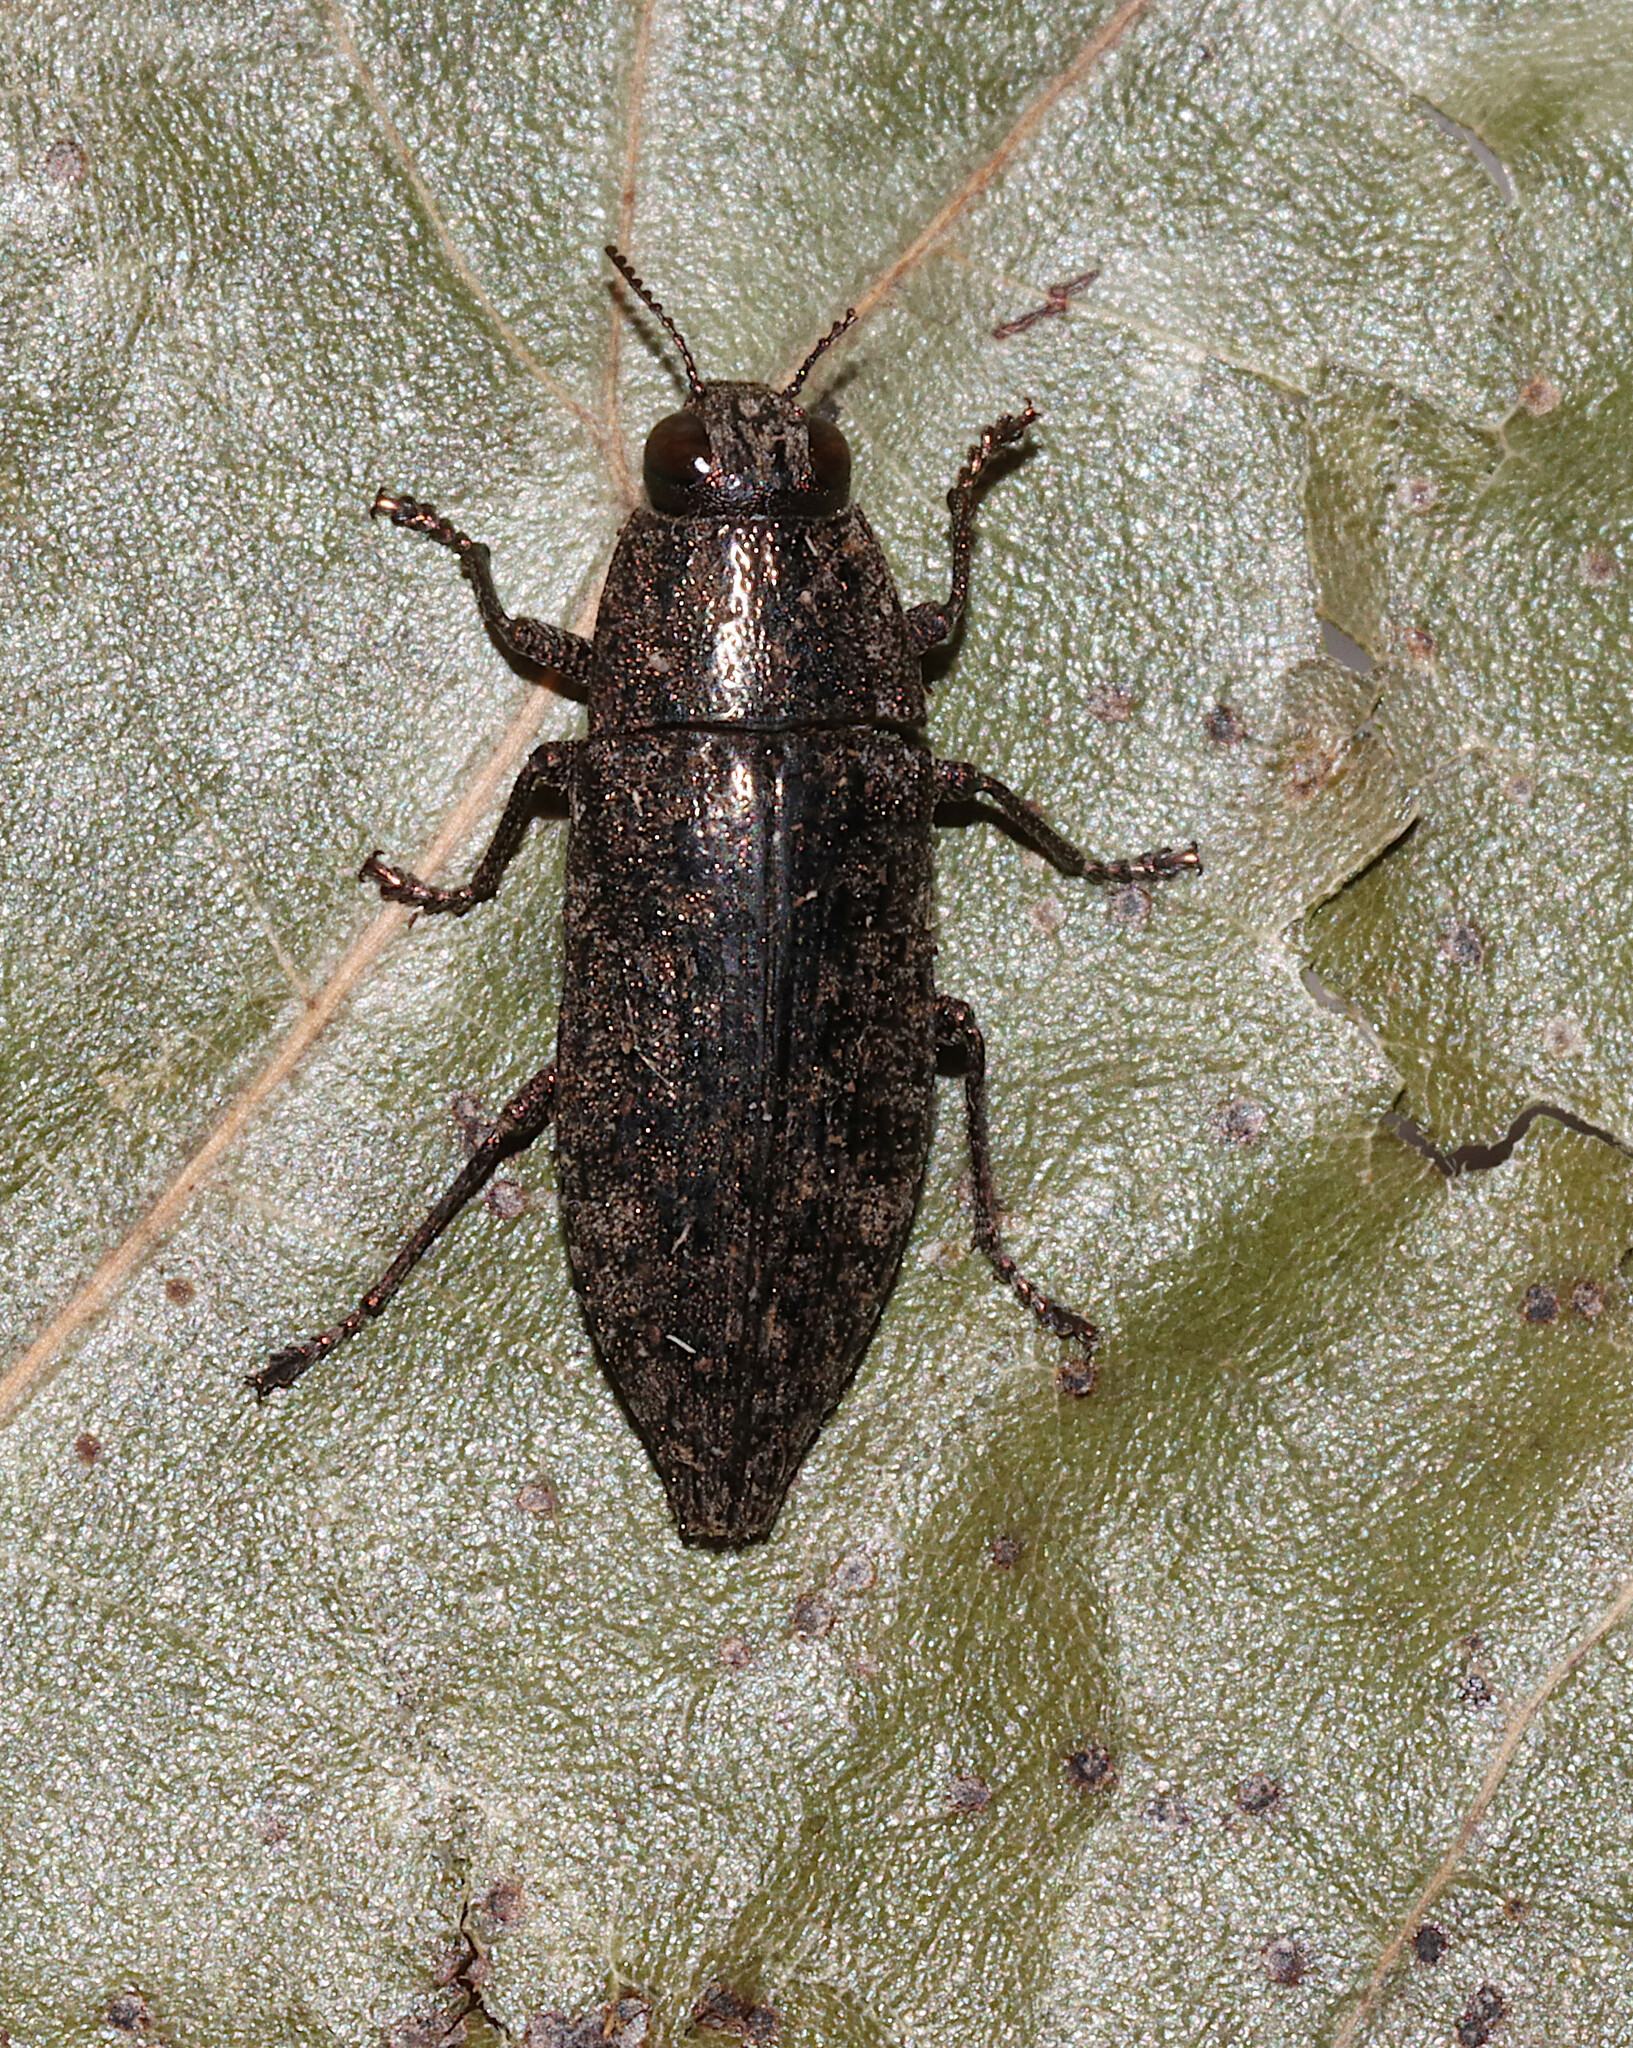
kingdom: Animalia
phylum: Arthropoda
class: Insecta
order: Coleoptera
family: Buprestidae
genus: Dicerca
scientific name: Dicerca obscura
